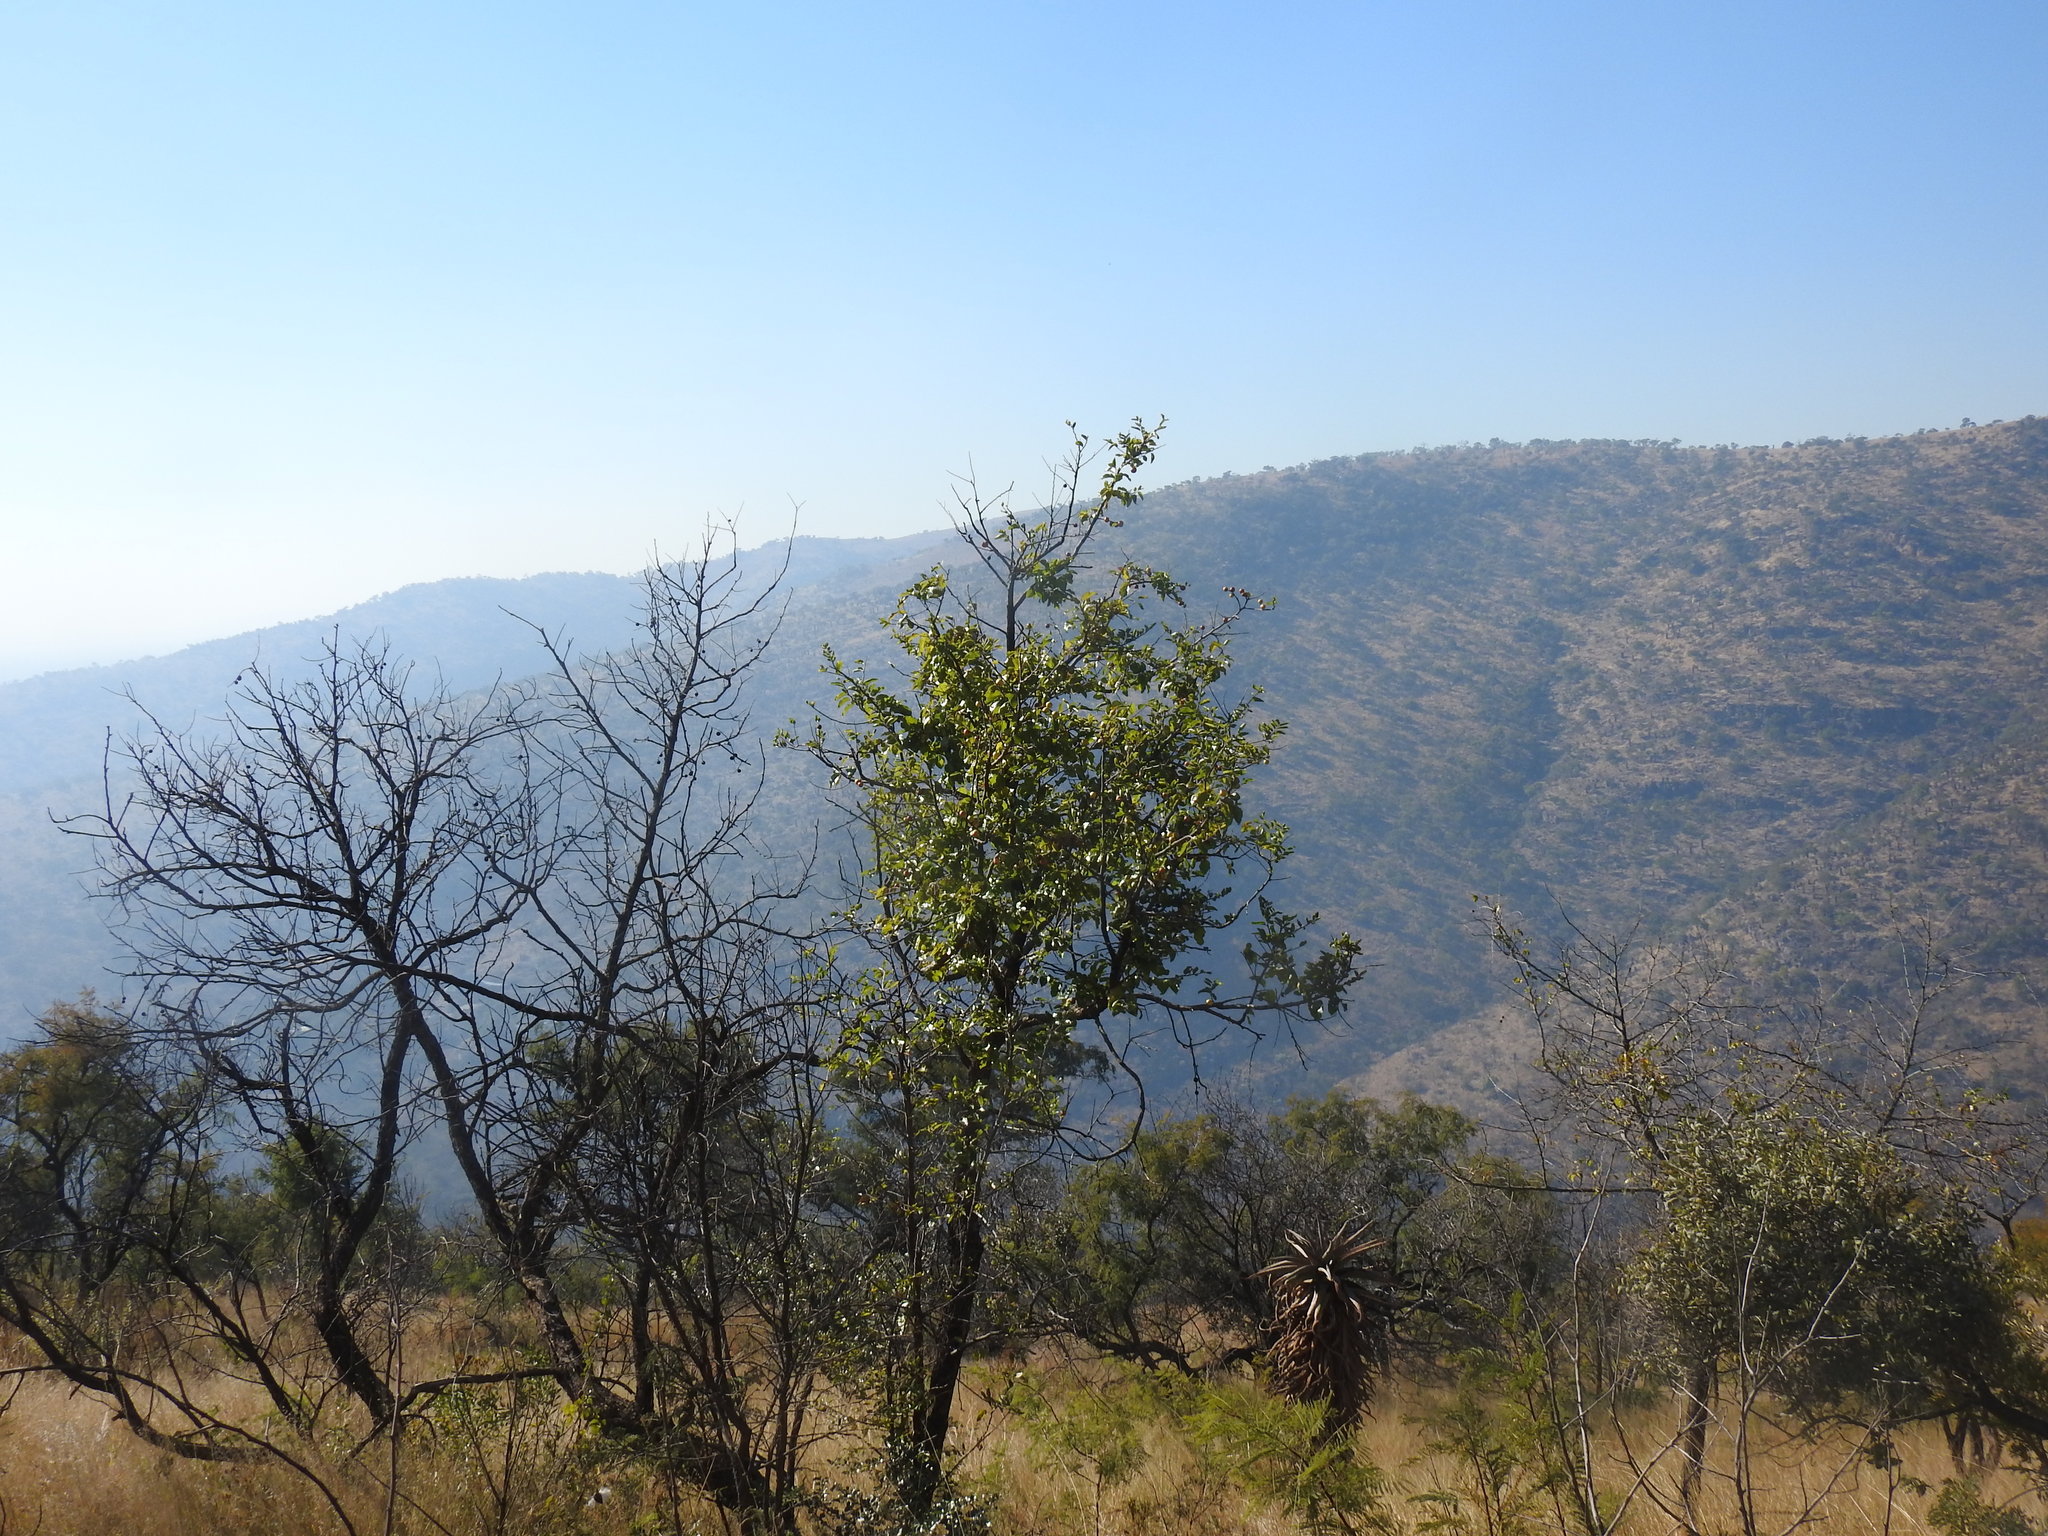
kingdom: Plantae
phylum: Tracheophyta
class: Magnoliopsida
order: Rosales
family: Rhamnaceae
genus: Ziziphus
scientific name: Ziziphus mucronata
